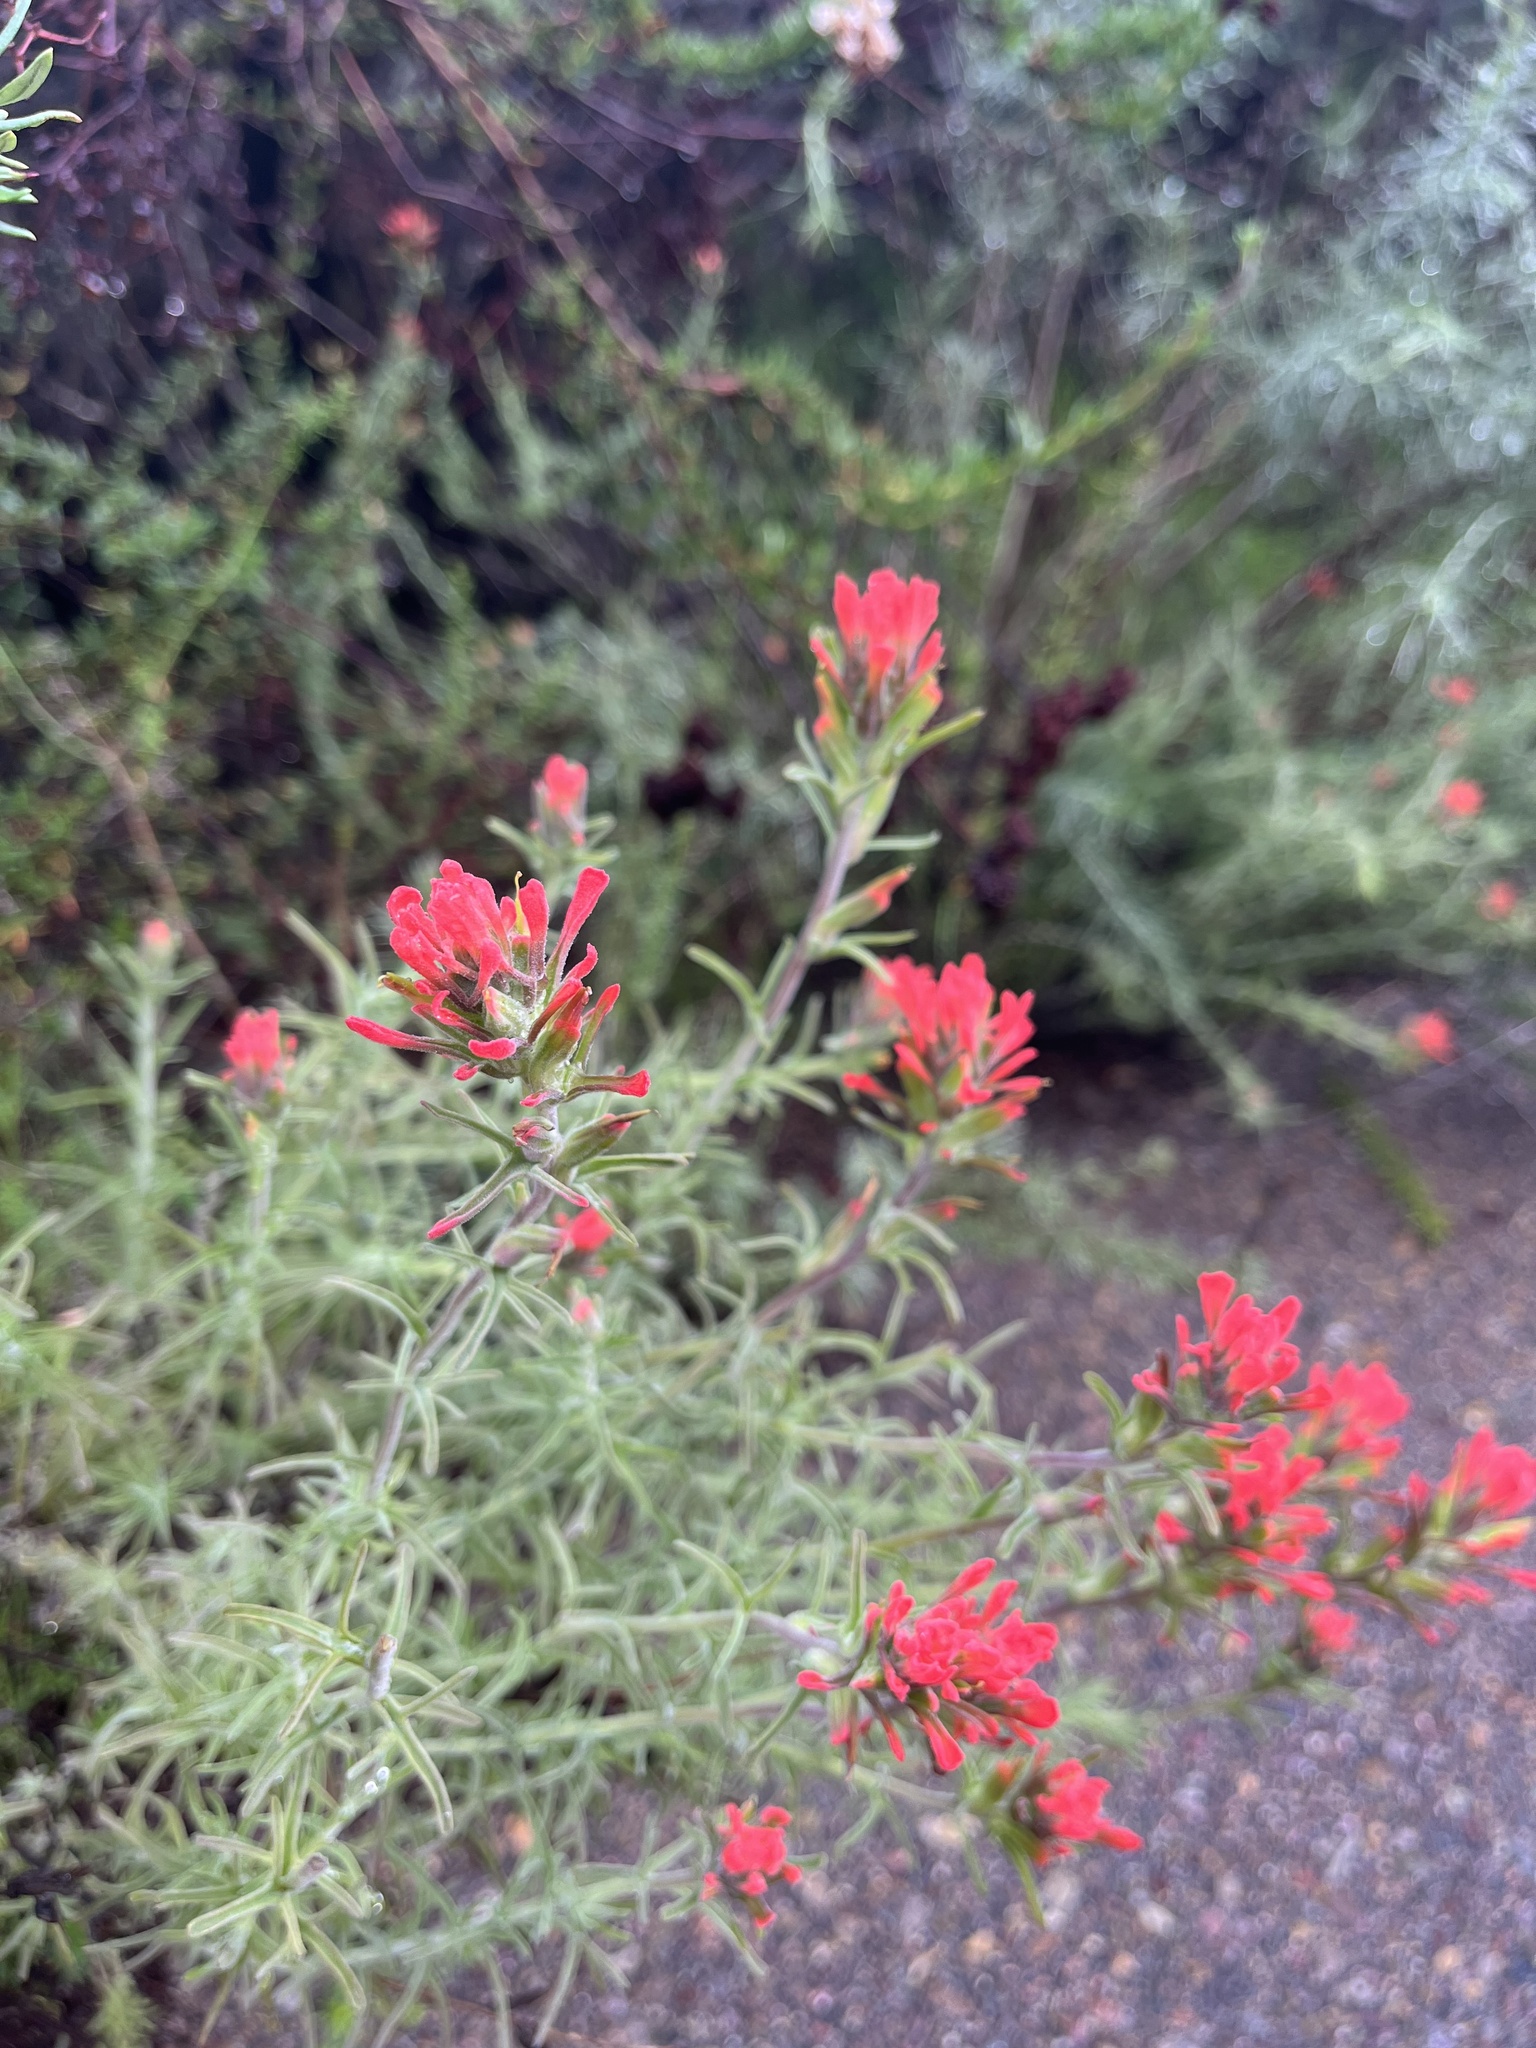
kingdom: Plantae
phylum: Tracheophyta
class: Magnoliopsida
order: Lamiales
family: Orobanchaceae
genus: Castilleja
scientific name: Castilleja foliolosa
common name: Woolly indian paintbrush
